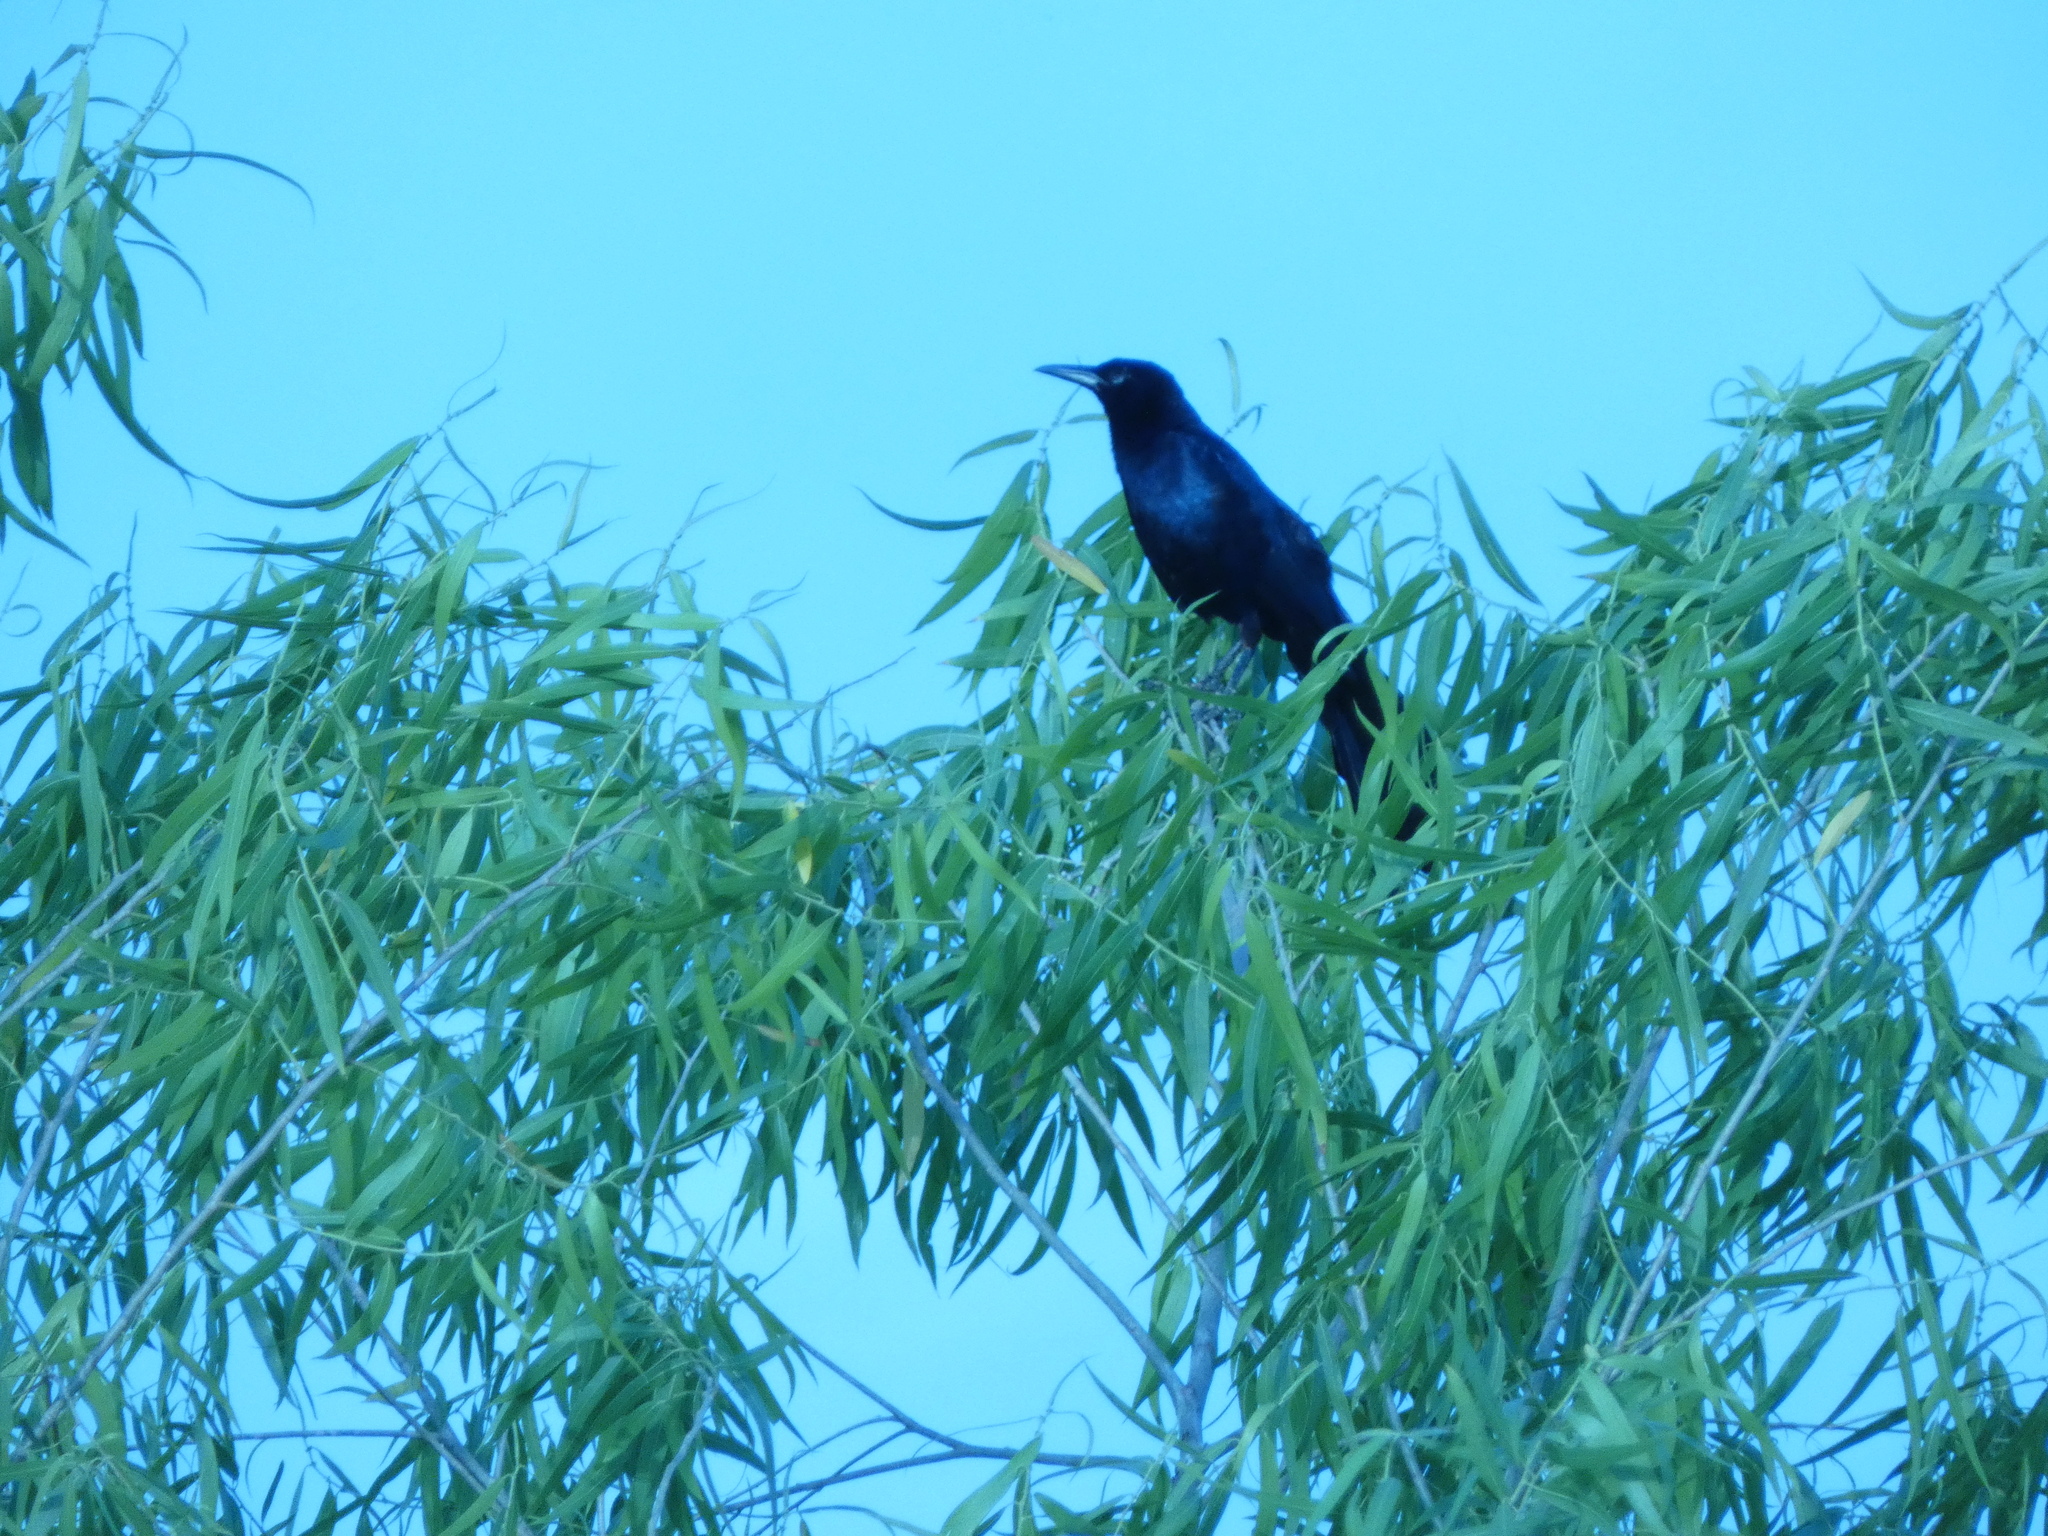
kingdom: Animalia
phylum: Chordata
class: Aves
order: Passeriformes
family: Icteridae
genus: Quiscalus
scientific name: Quiscalus mexicanus
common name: Great-tailed grackle
